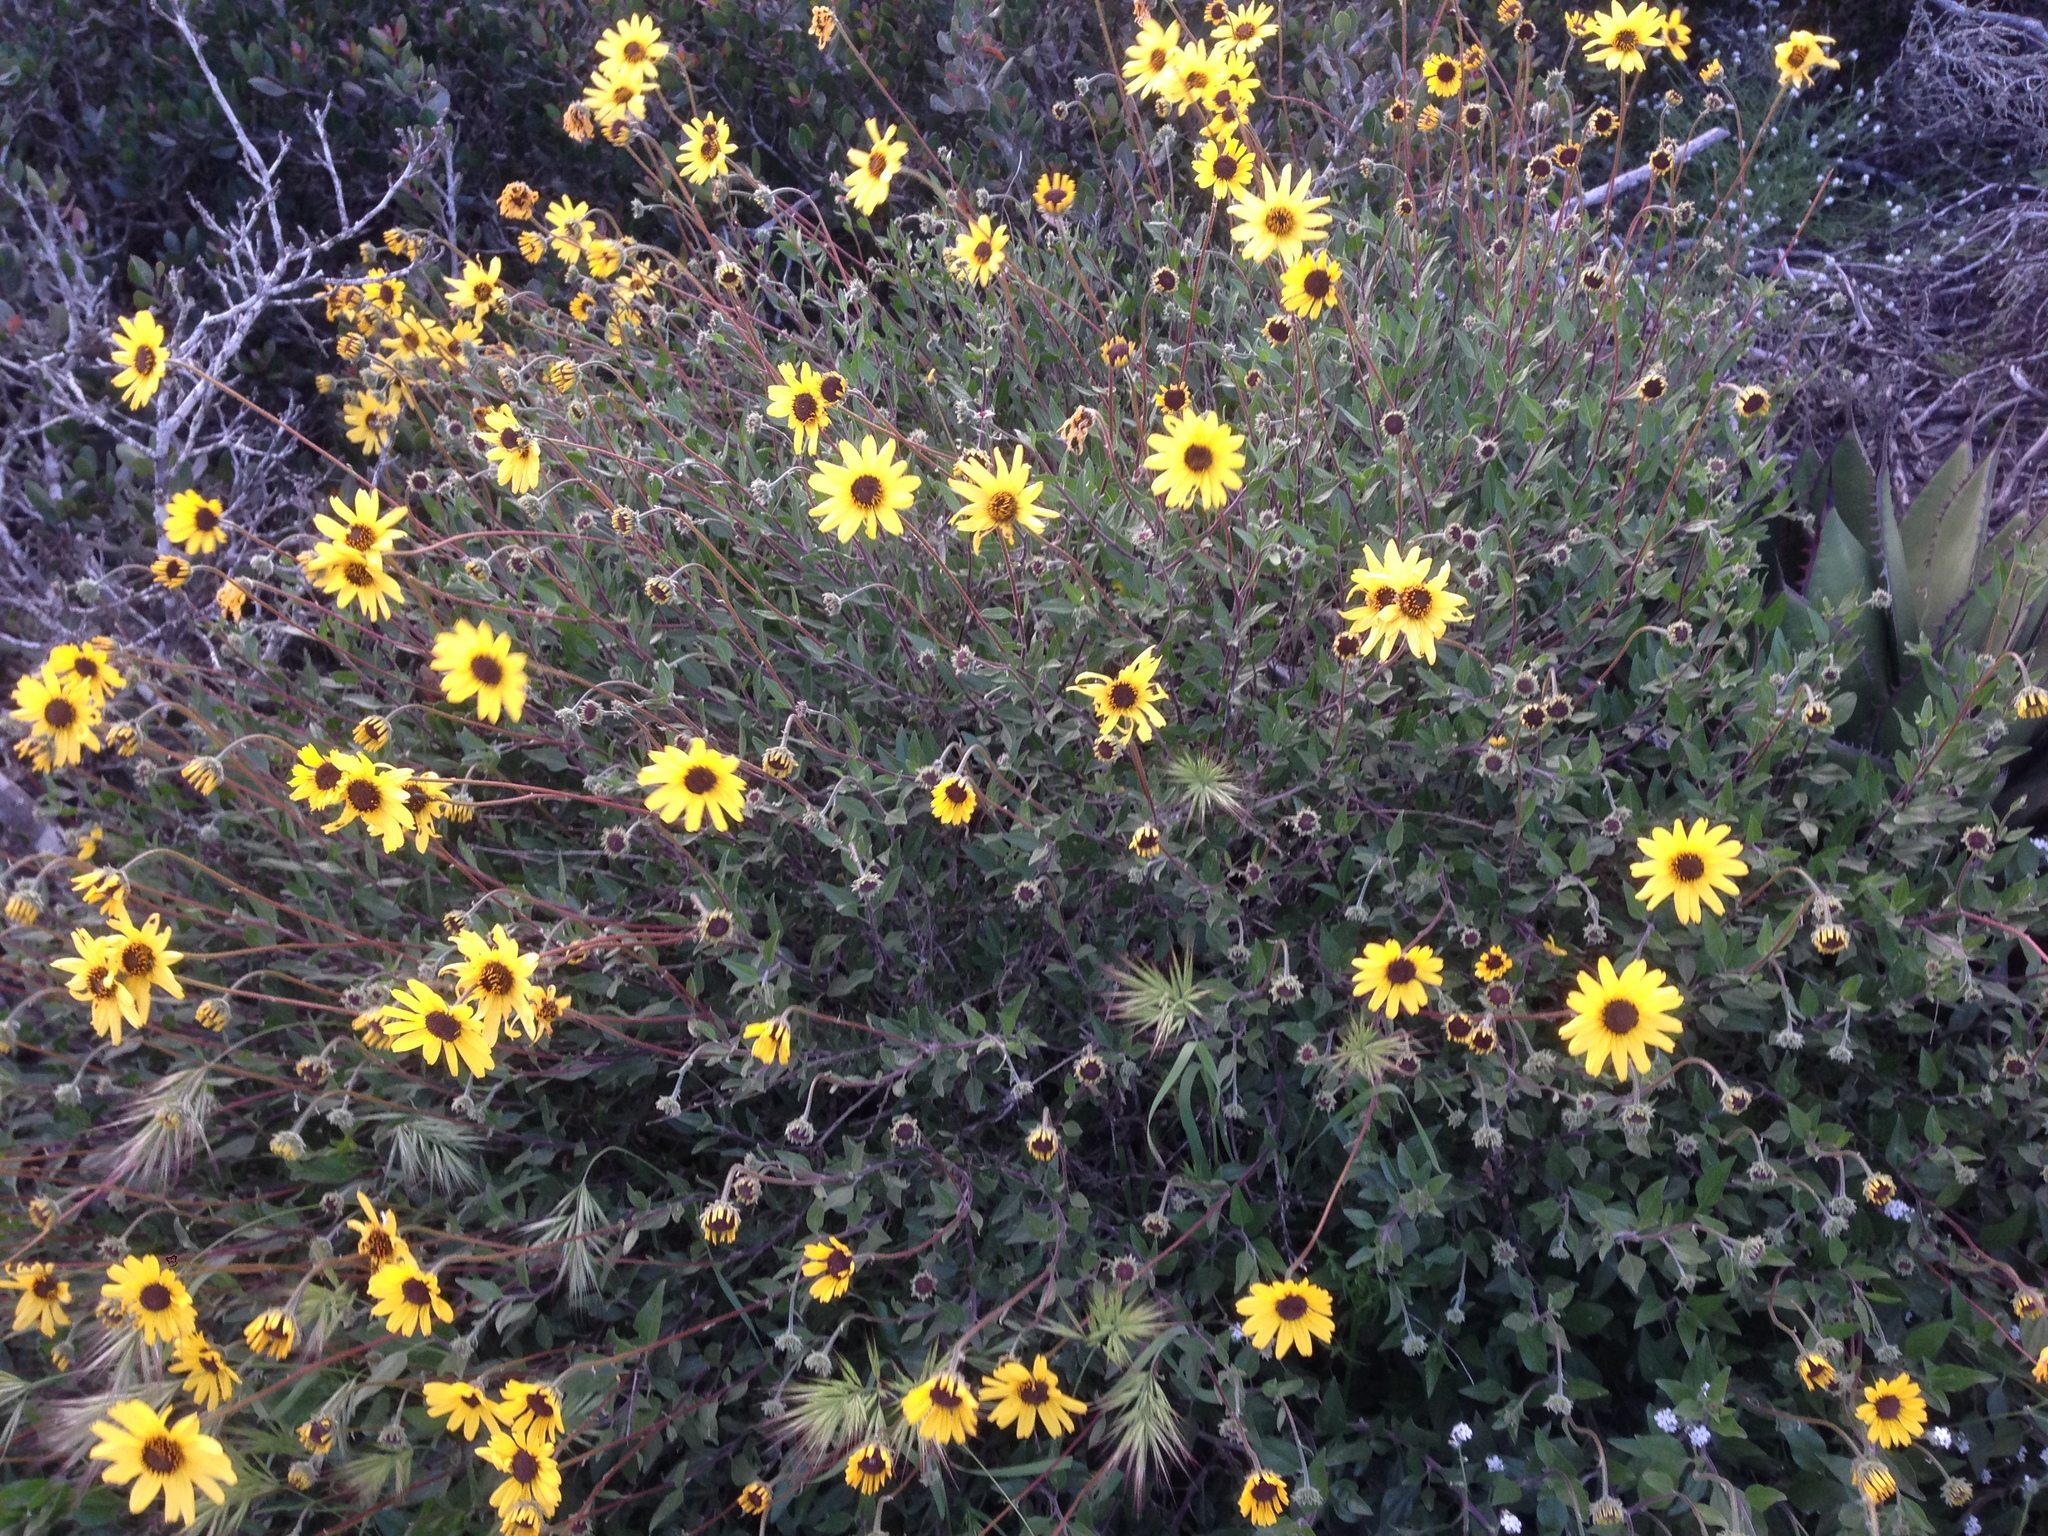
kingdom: Plantae
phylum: Tracheophyta
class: Magnoliopsida
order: Asterales
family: Asteraceae
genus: Encelia
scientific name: Encelia californica
